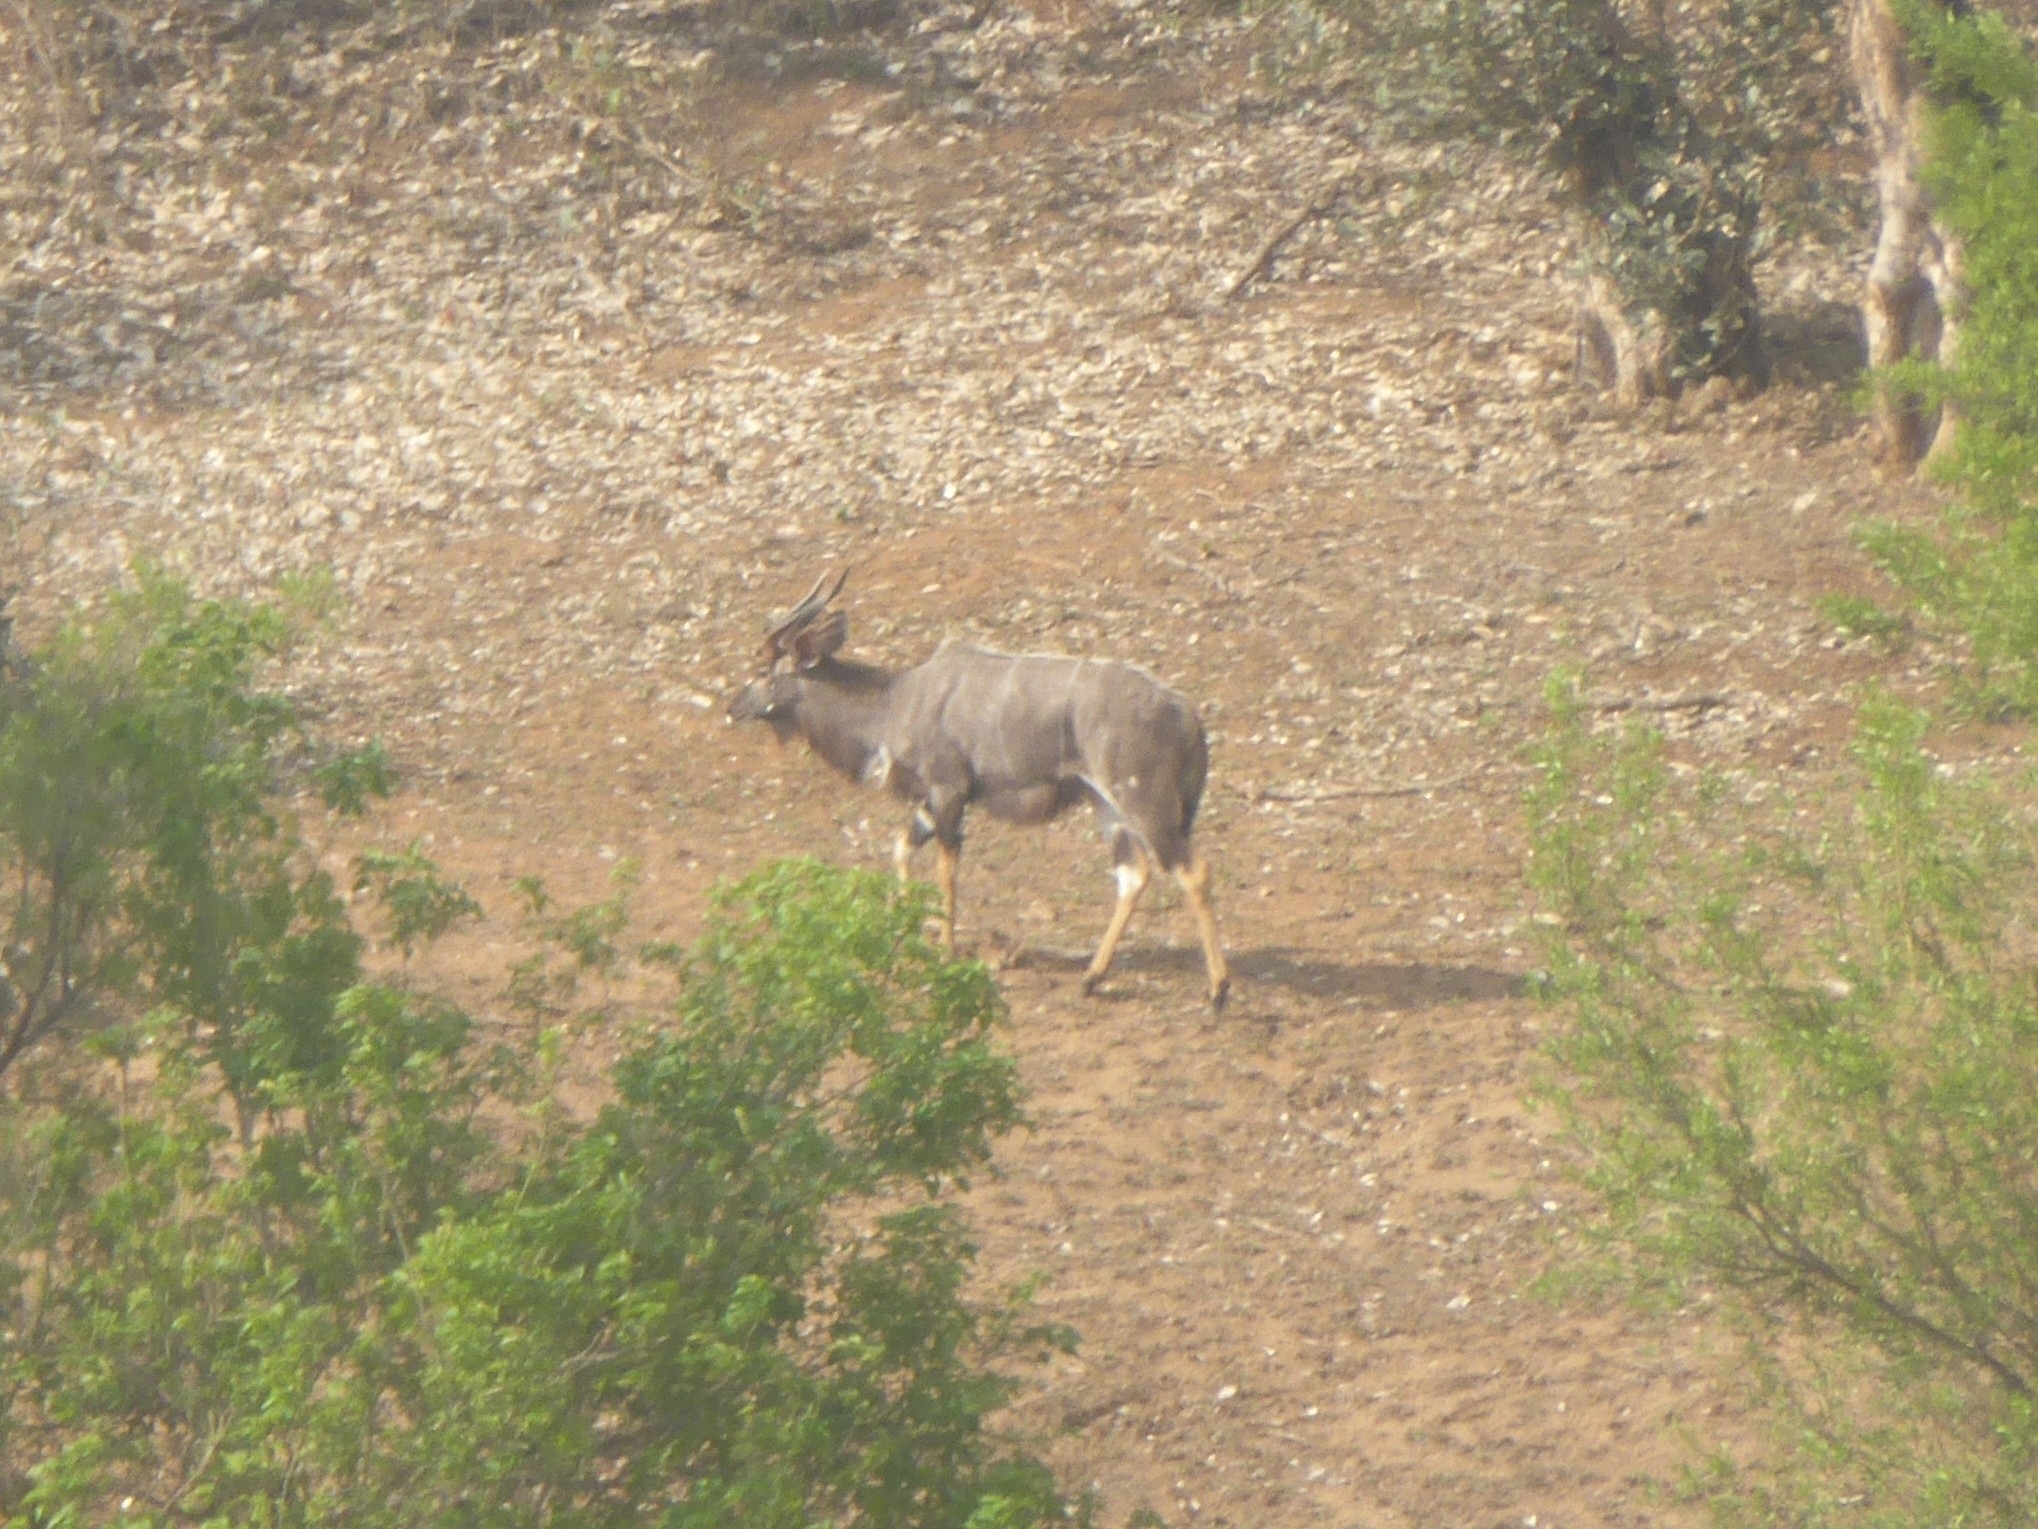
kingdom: Animalia
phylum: Chordata
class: Mammalia
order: Artiodactyla
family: Bovidae
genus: Tragelaphus
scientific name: Tragelaphus angasii
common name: Nyala
